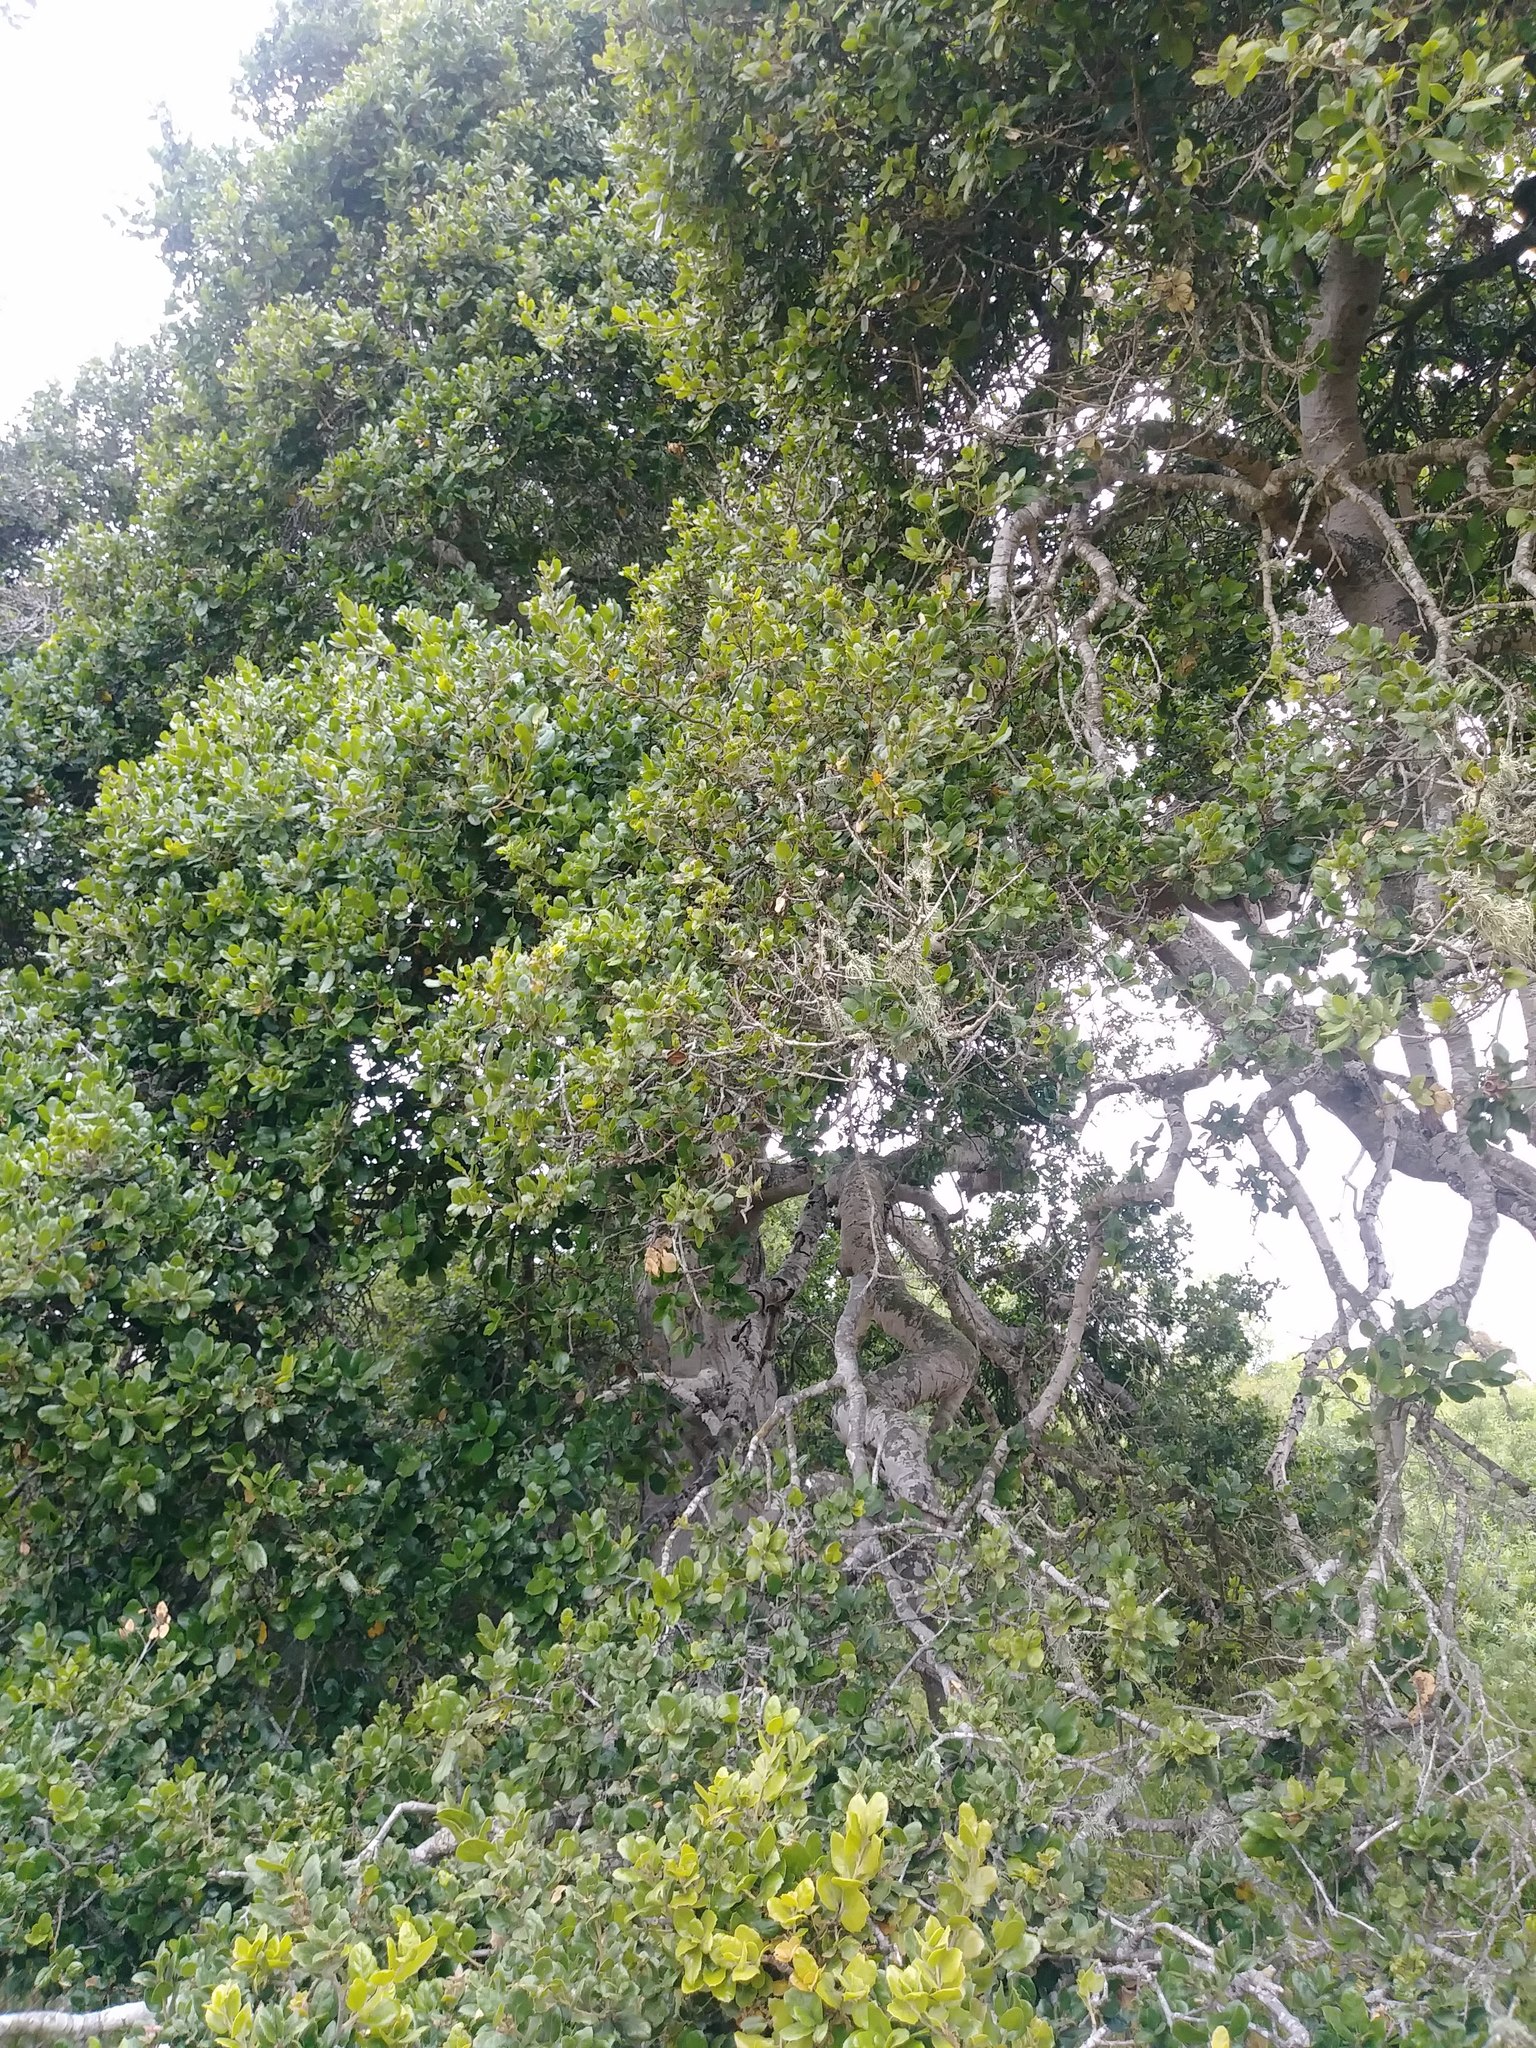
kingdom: Plantae
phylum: Tracheophyta
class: Magnoliopsida
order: Fagales
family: Fagaceae
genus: Quercus
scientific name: Quercus agrifolia
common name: California live oak
